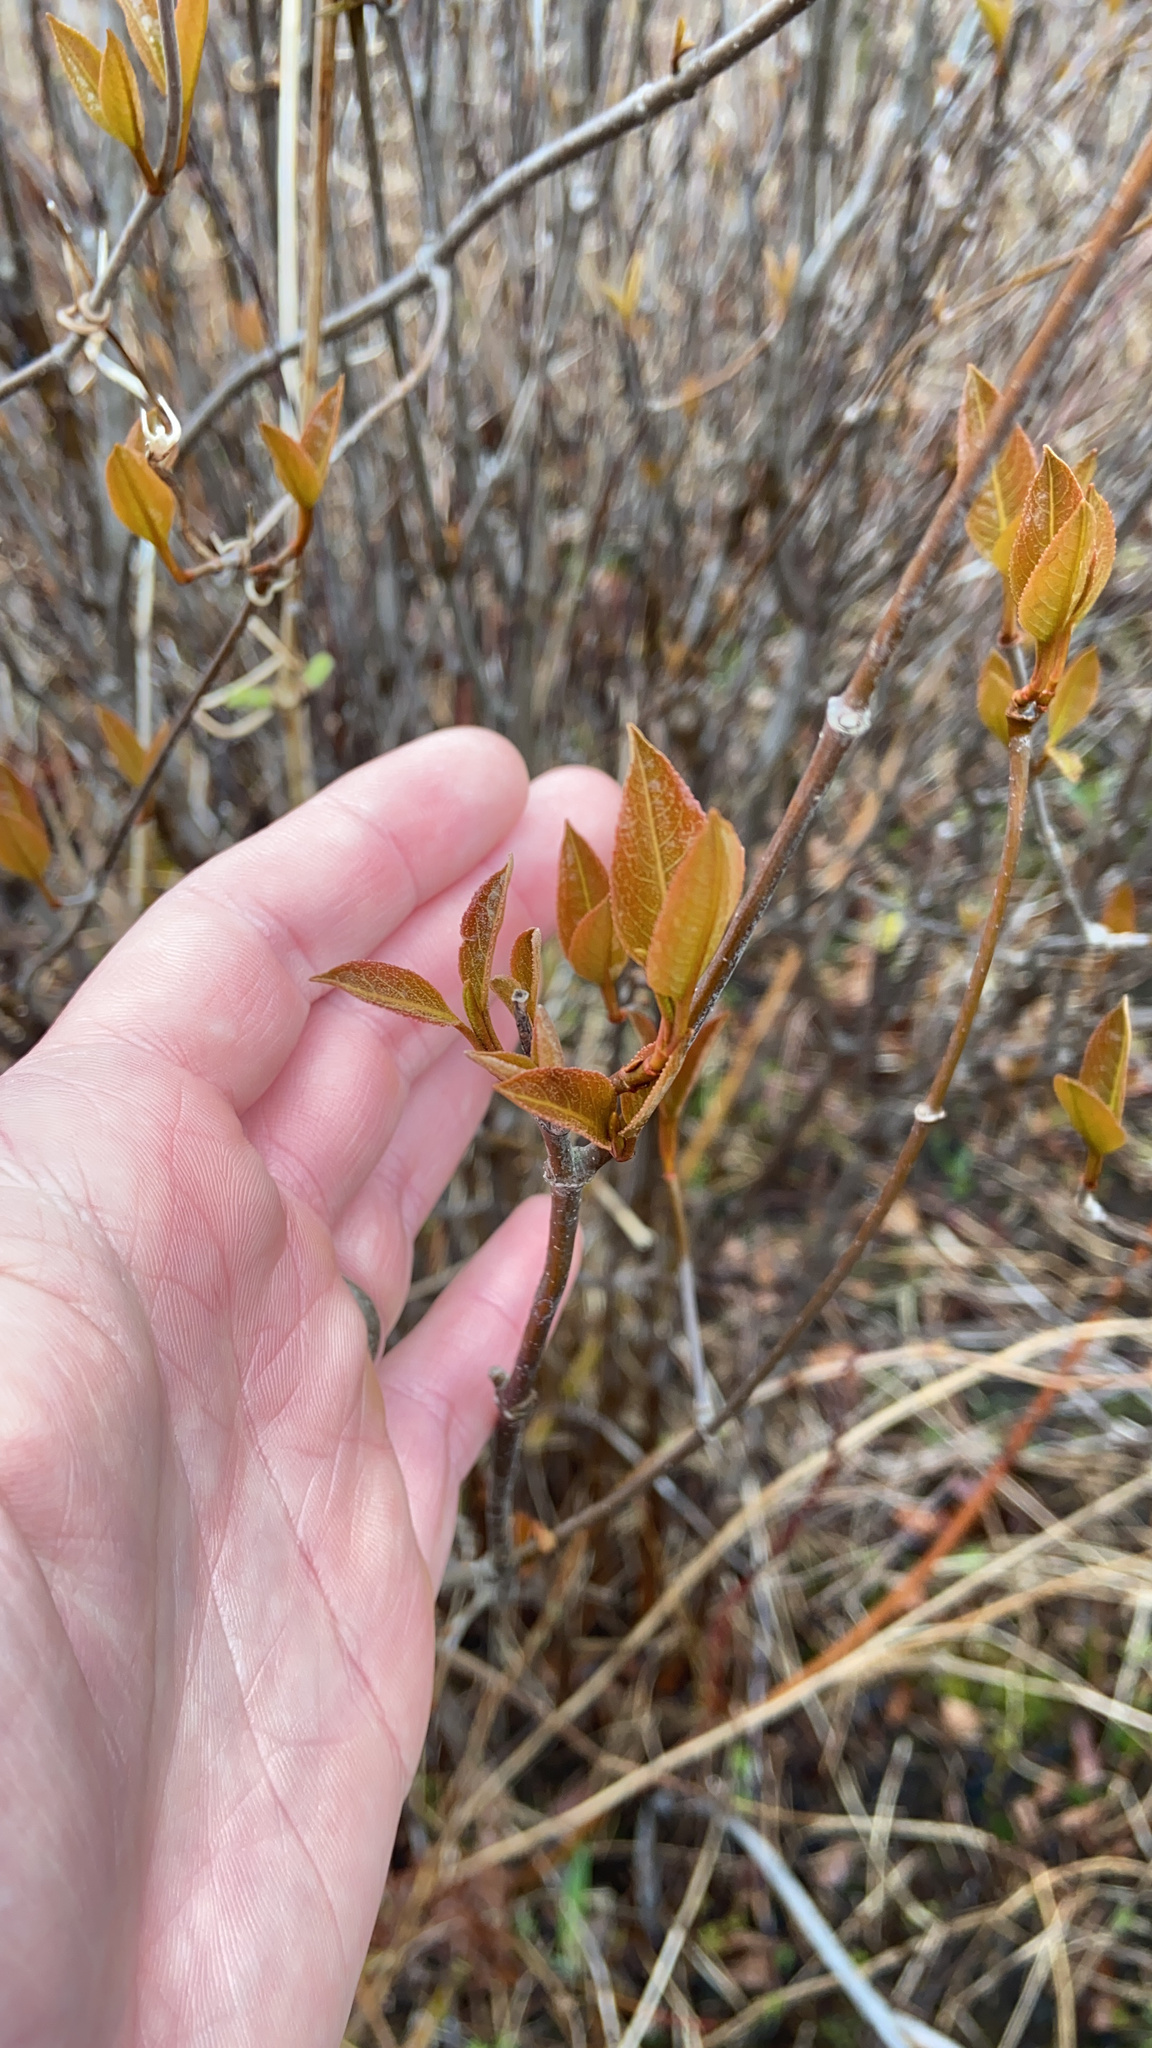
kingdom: Plantae
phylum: Tracheophyta
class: Magnoliopsida
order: Dipsacales
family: Viburnaceae
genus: Viburnum
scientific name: Viburnum cassinoides
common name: Swamp haw
